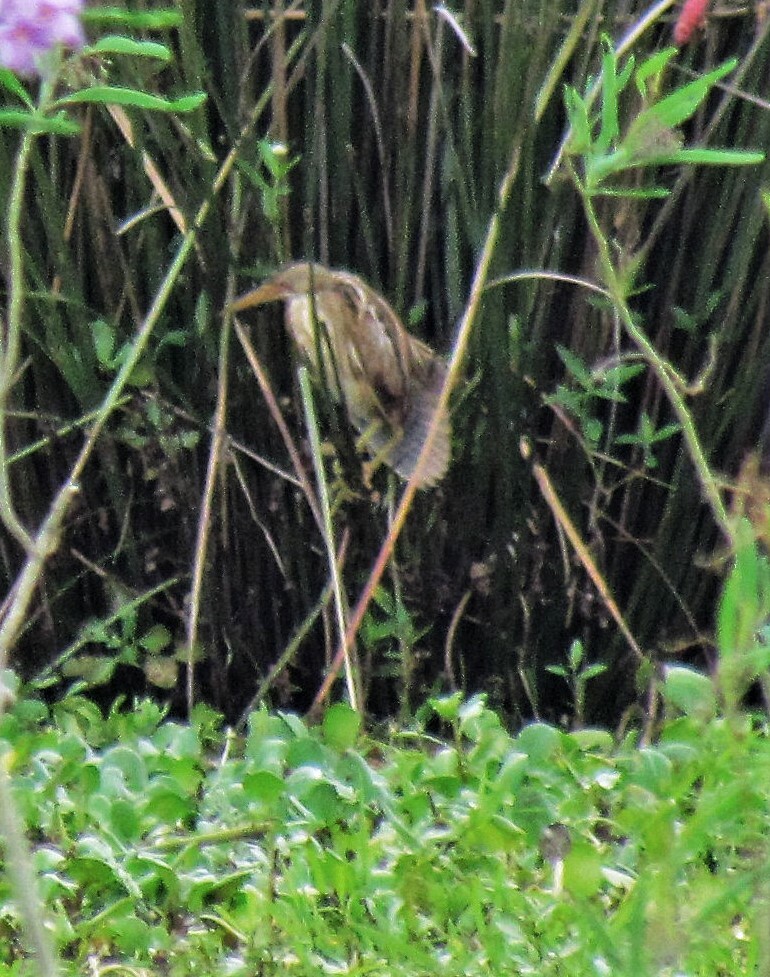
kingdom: Animalia
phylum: Chordata
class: Aves
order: Pelecaniformes
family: Ardeidae
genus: Ixobrychus
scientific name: Ixobrychus involucris
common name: Stripe-backed bittern
